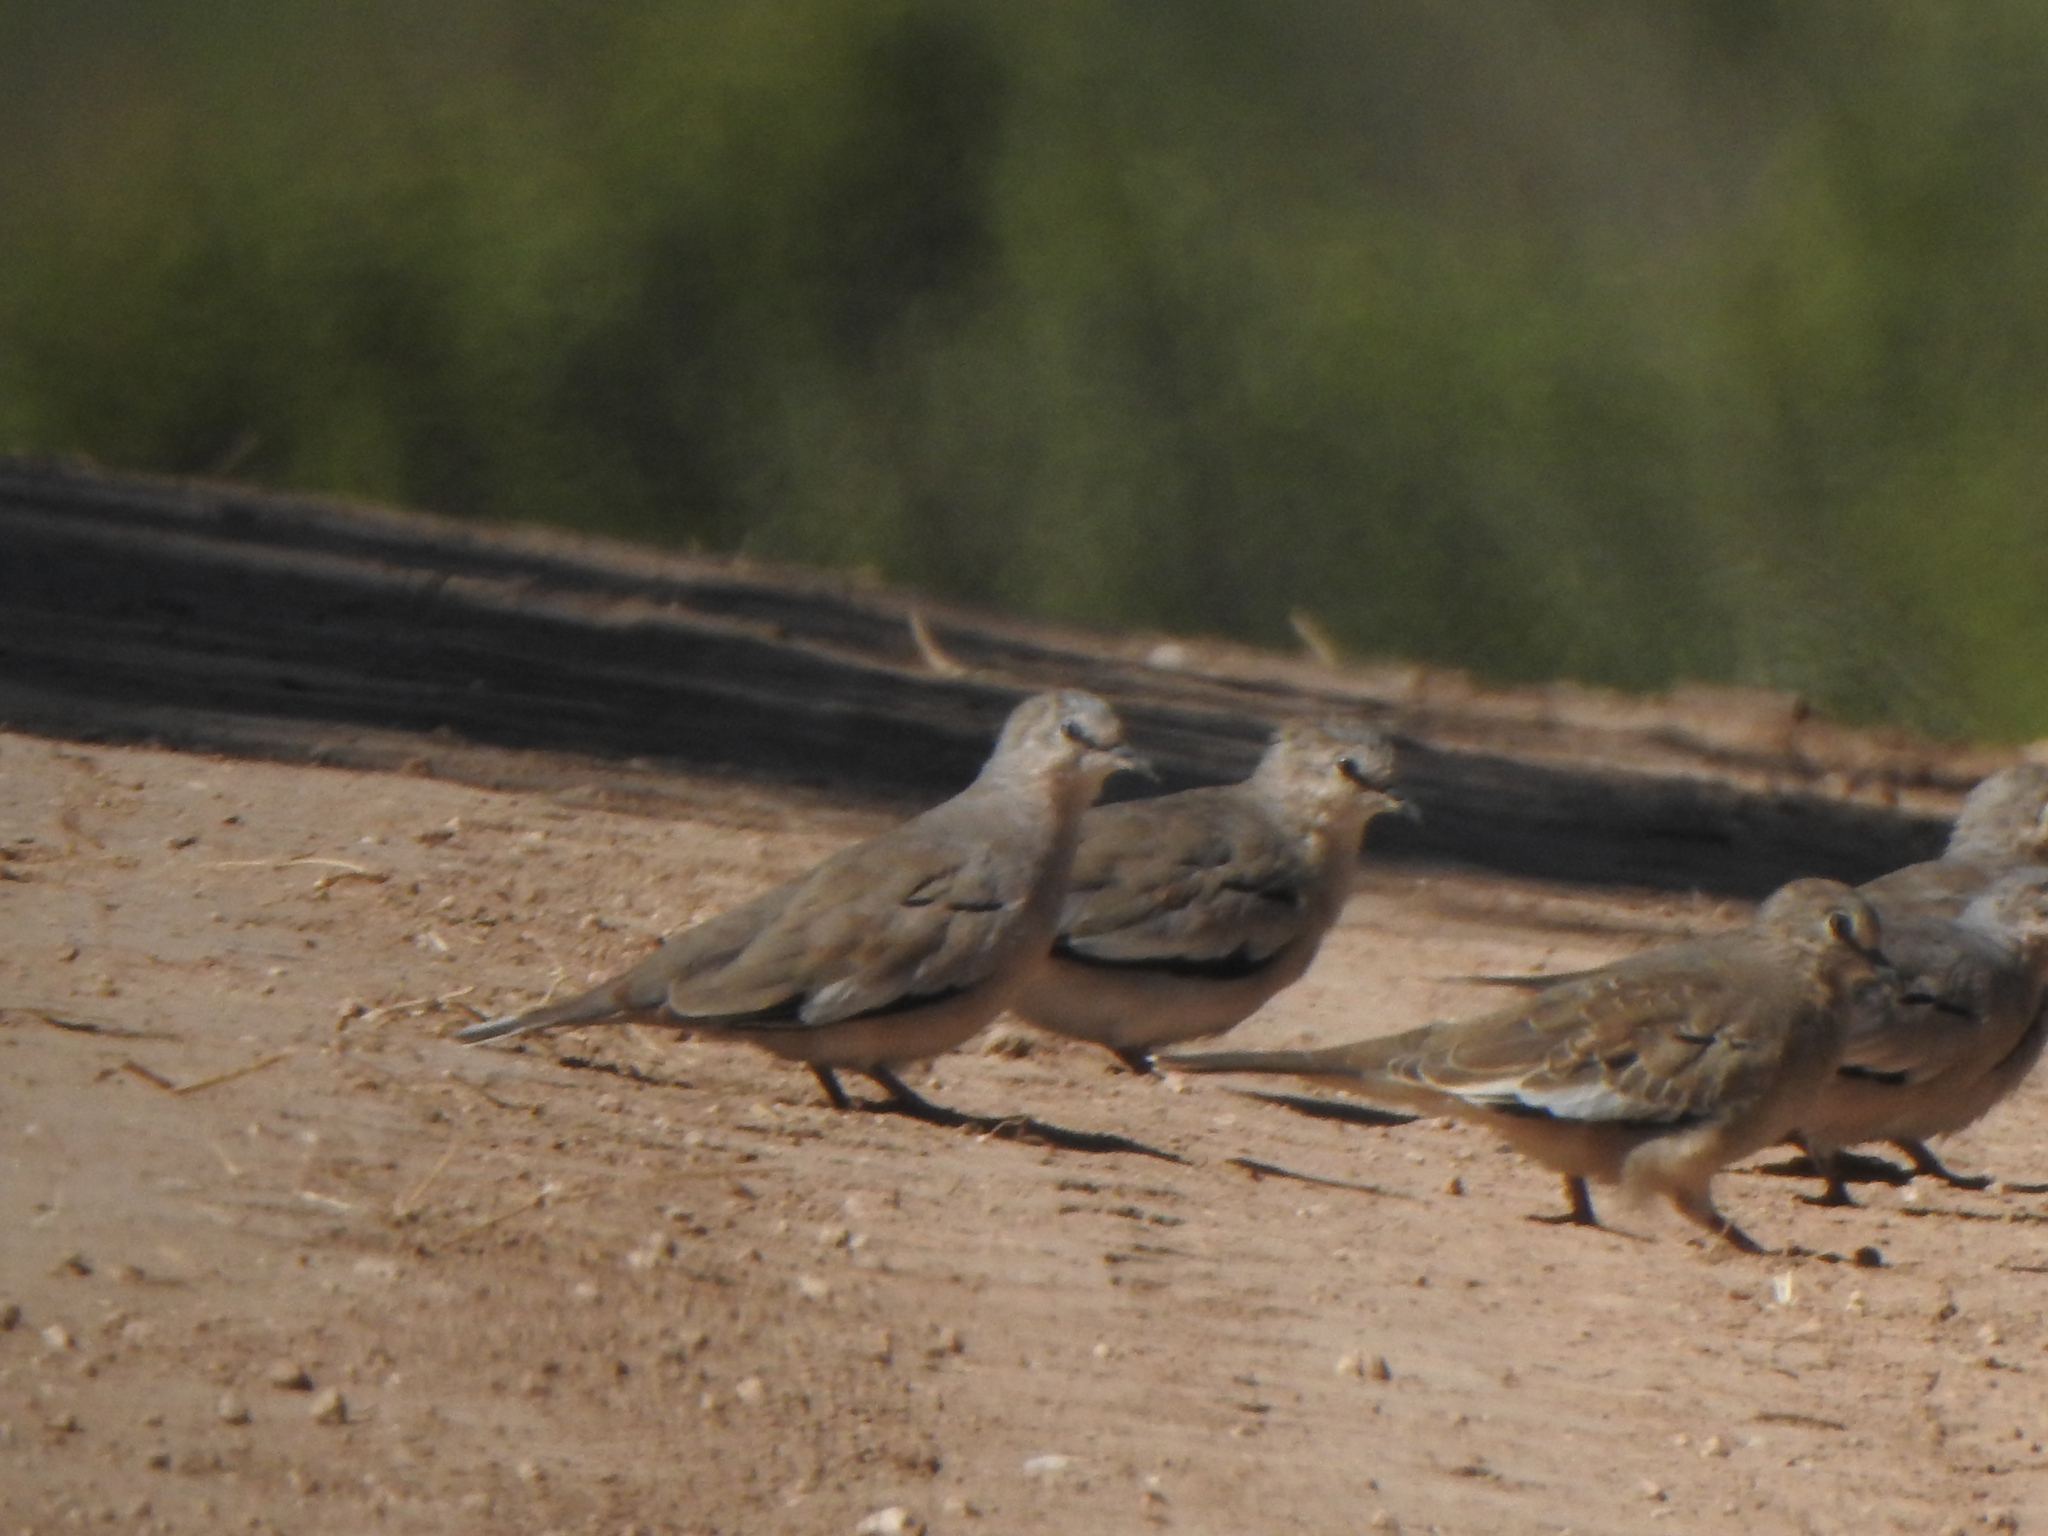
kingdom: Animalia
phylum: Chordata
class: Aves
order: Columbiformes
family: Columbidae
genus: Columbina
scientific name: Columbina picui
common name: Picui ground dove
